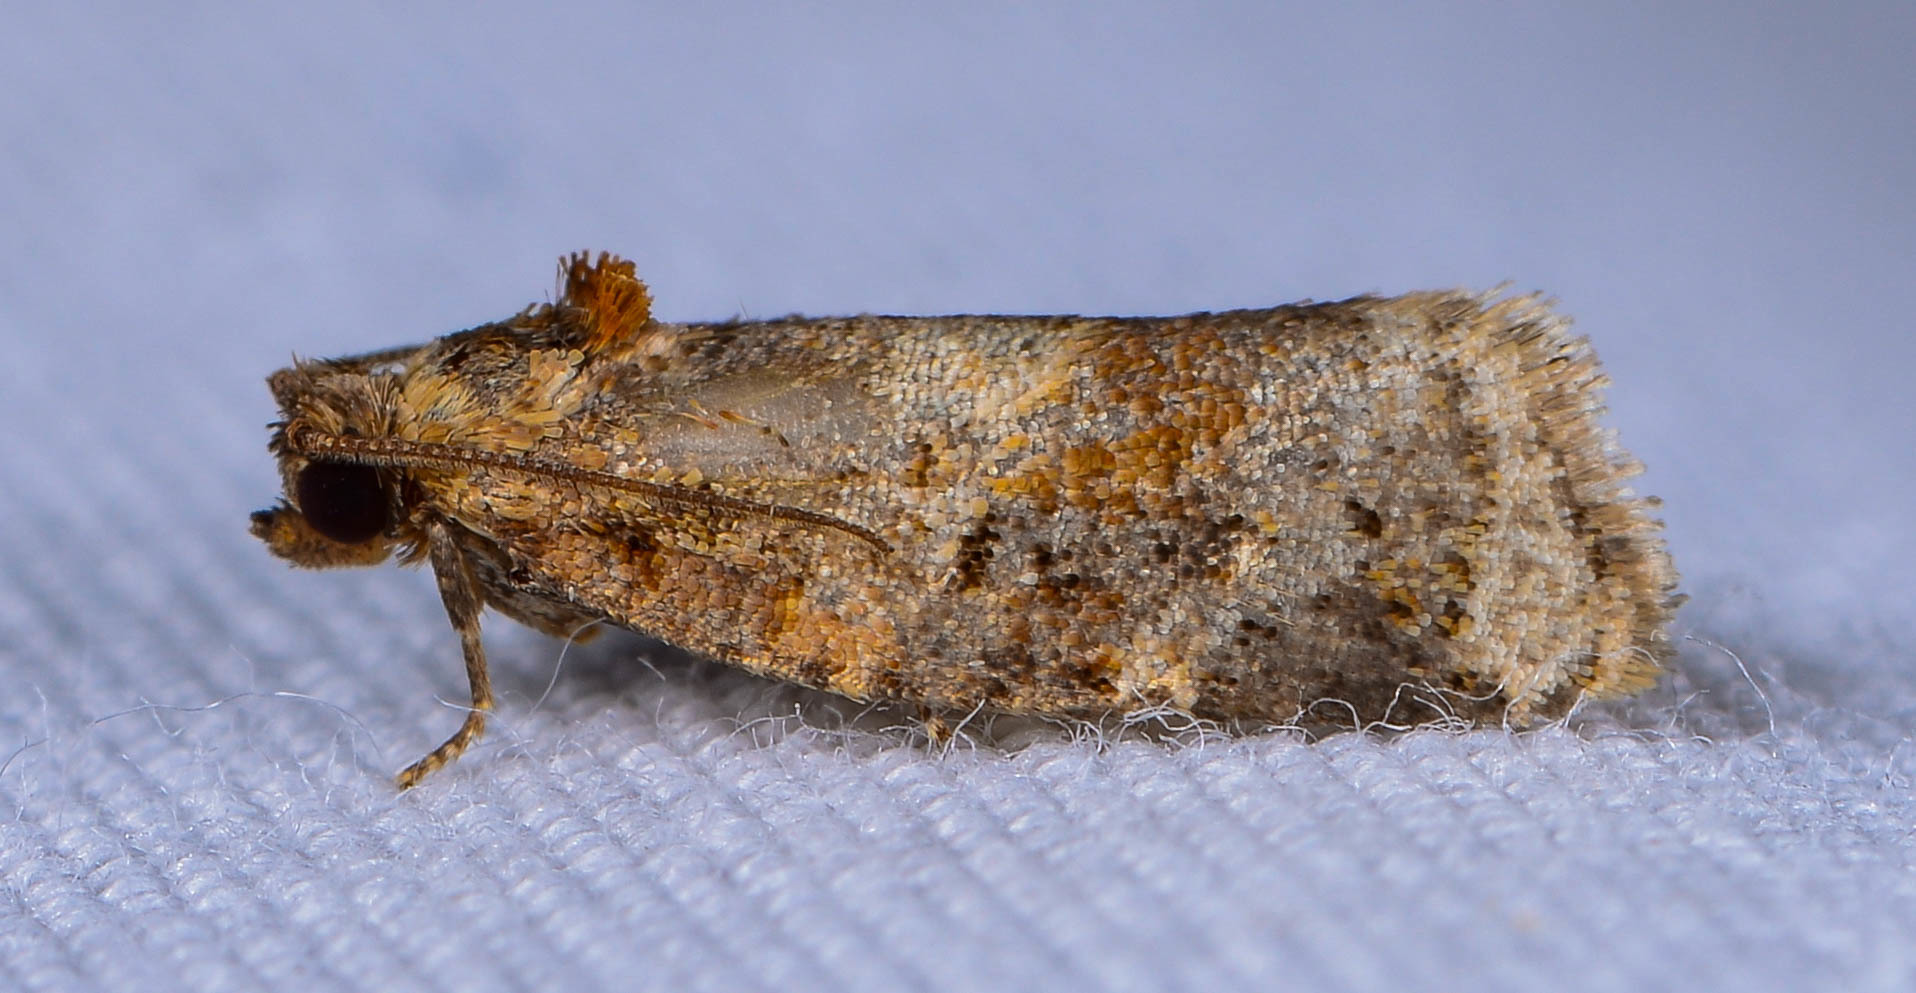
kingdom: Animalia
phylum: Arthropoda
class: Insecta
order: Lepidoptera
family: Tortricidae
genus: Argyrotaenia
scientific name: Argyrotaenia velutinana
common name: Red-banded leafroller moth
